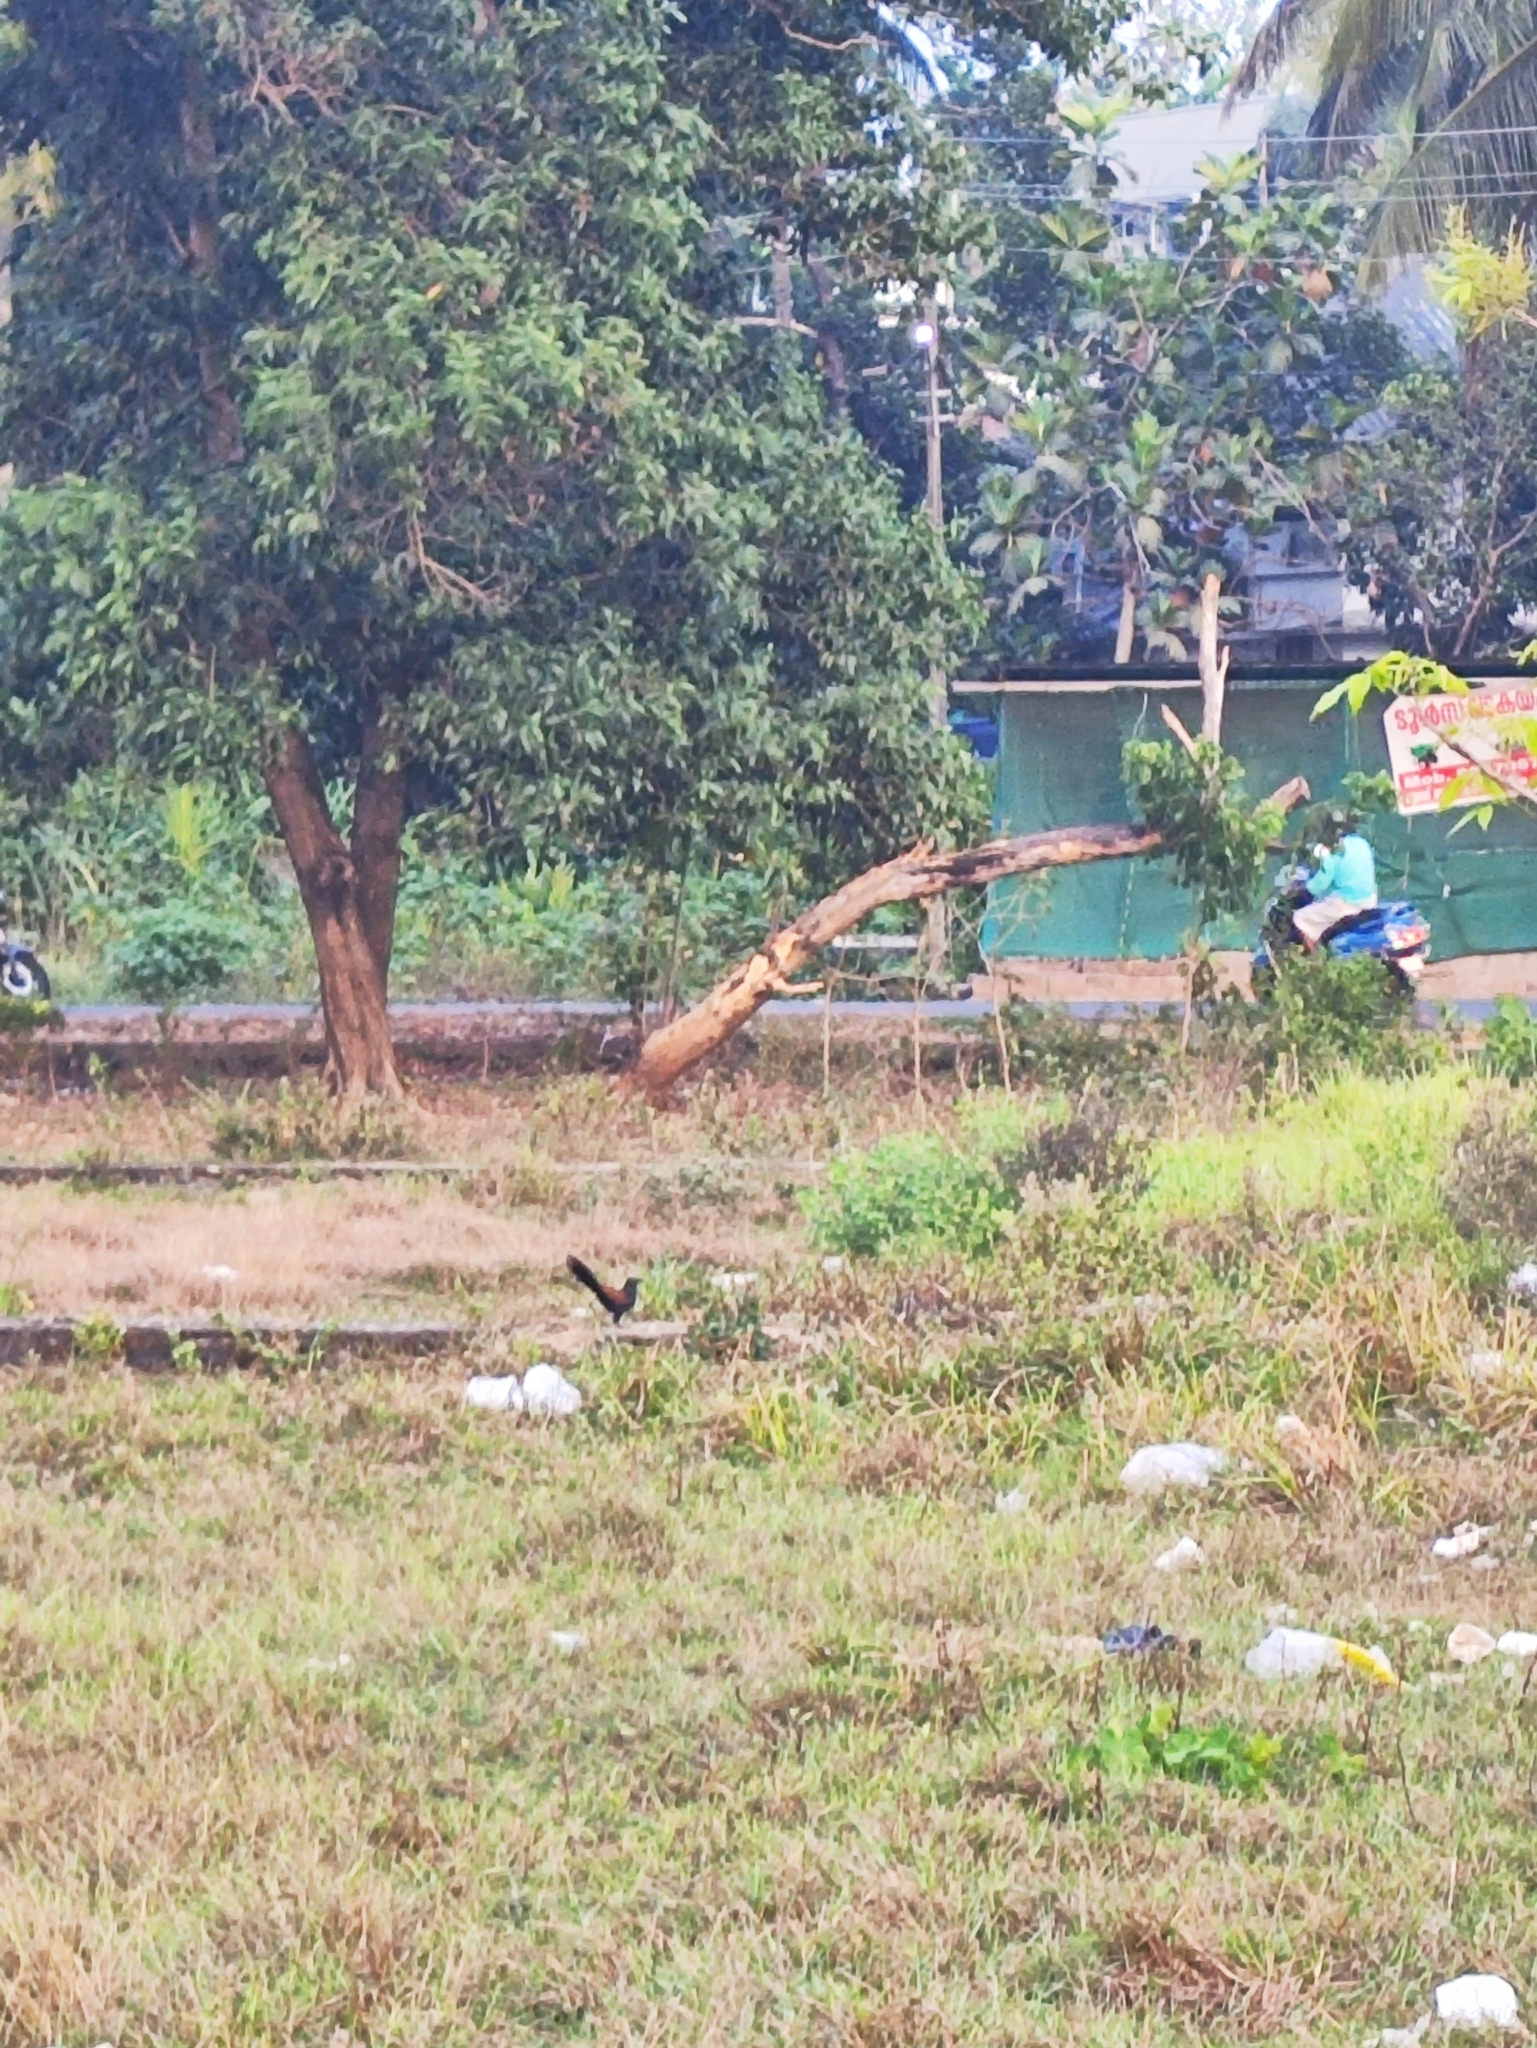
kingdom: Animalia
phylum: Chordata
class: Aves
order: Cuculiformes
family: Cuculidae
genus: Centropus
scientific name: Centropus sinensis
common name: Greater coucal
